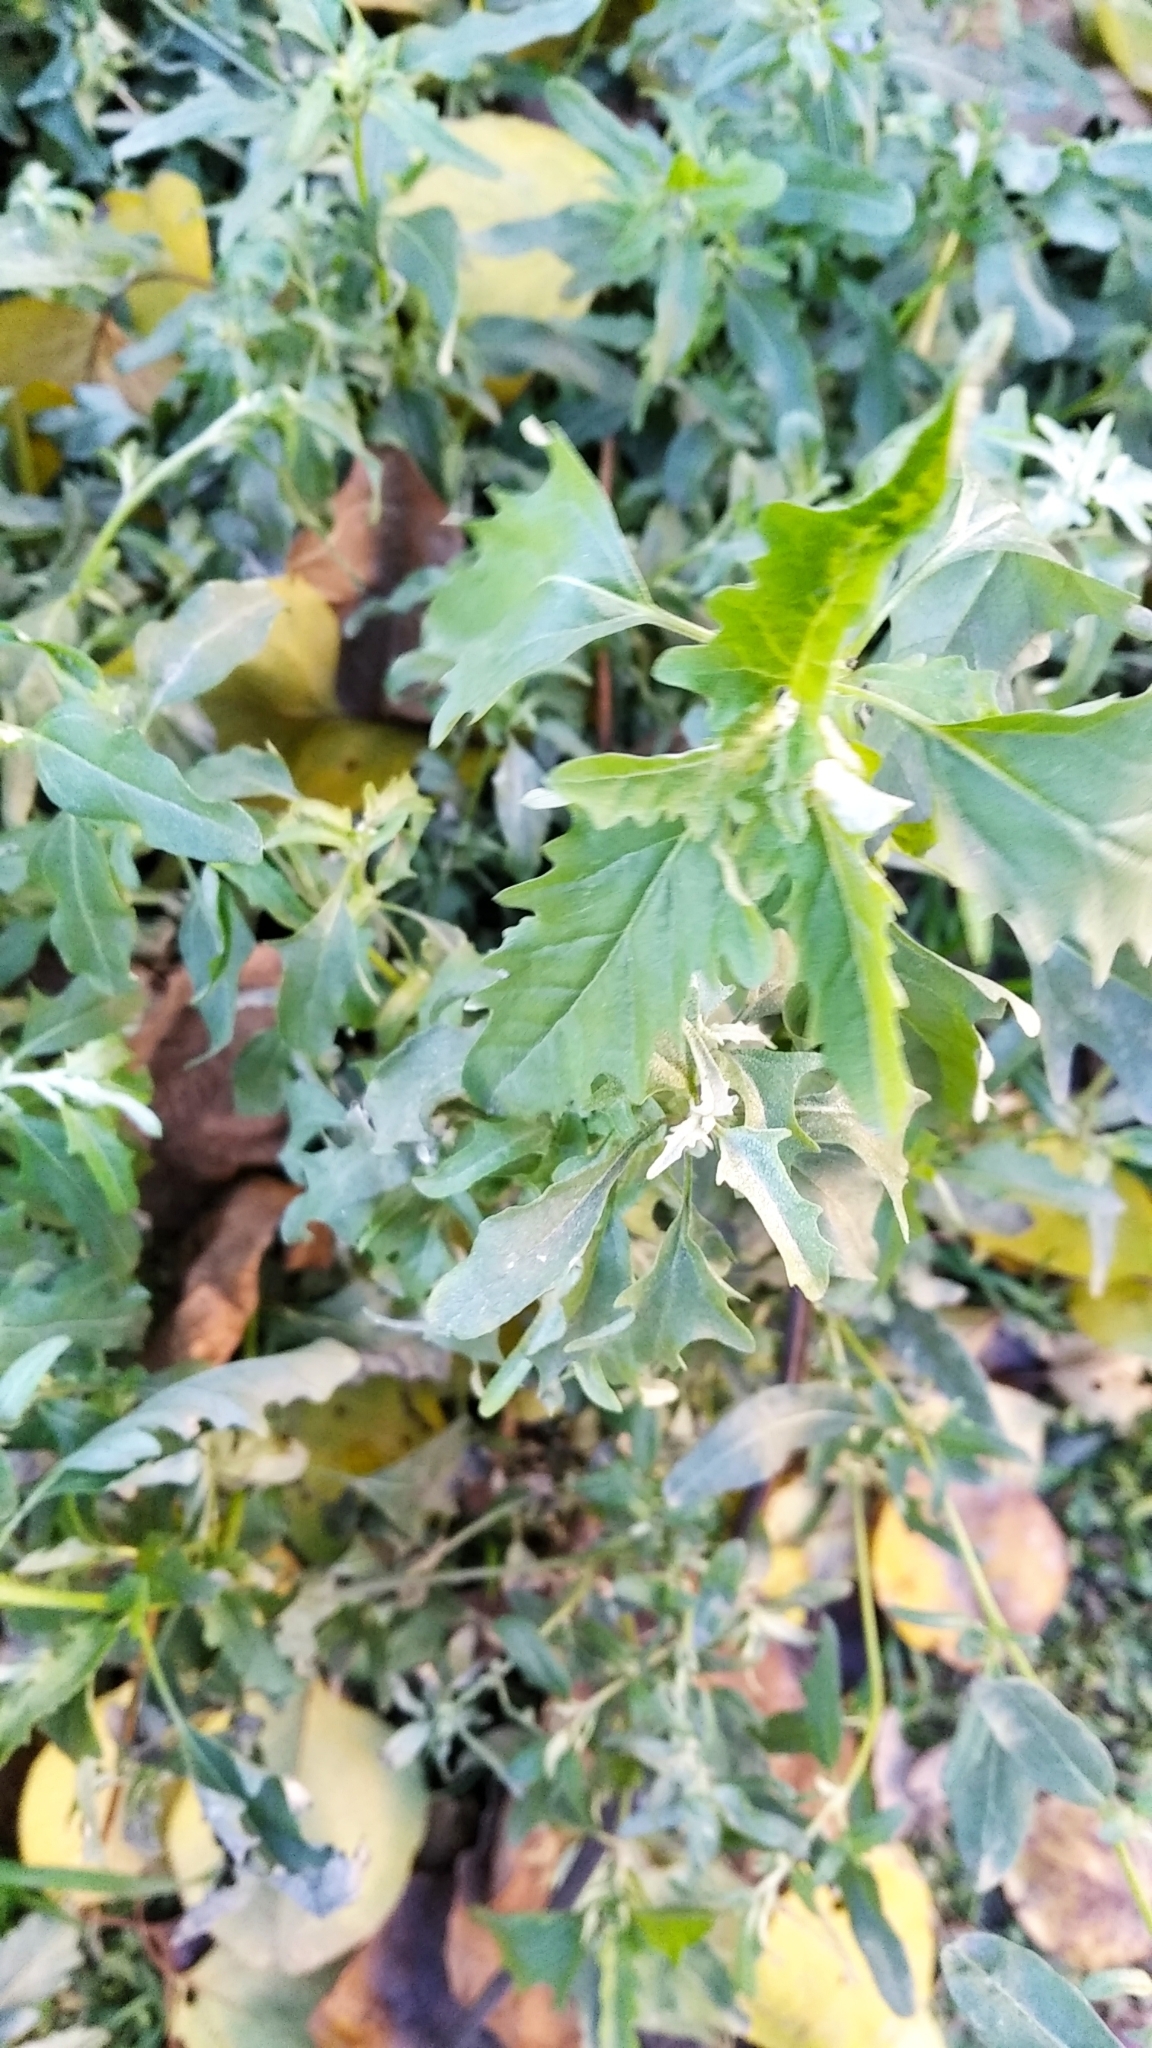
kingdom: Plantae
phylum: Tracheophyta
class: Magnoliopsida
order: Caryophyllales
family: Amaranthaceae
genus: Atriplex
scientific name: Atriplex tatarica
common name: Tatarian orache
